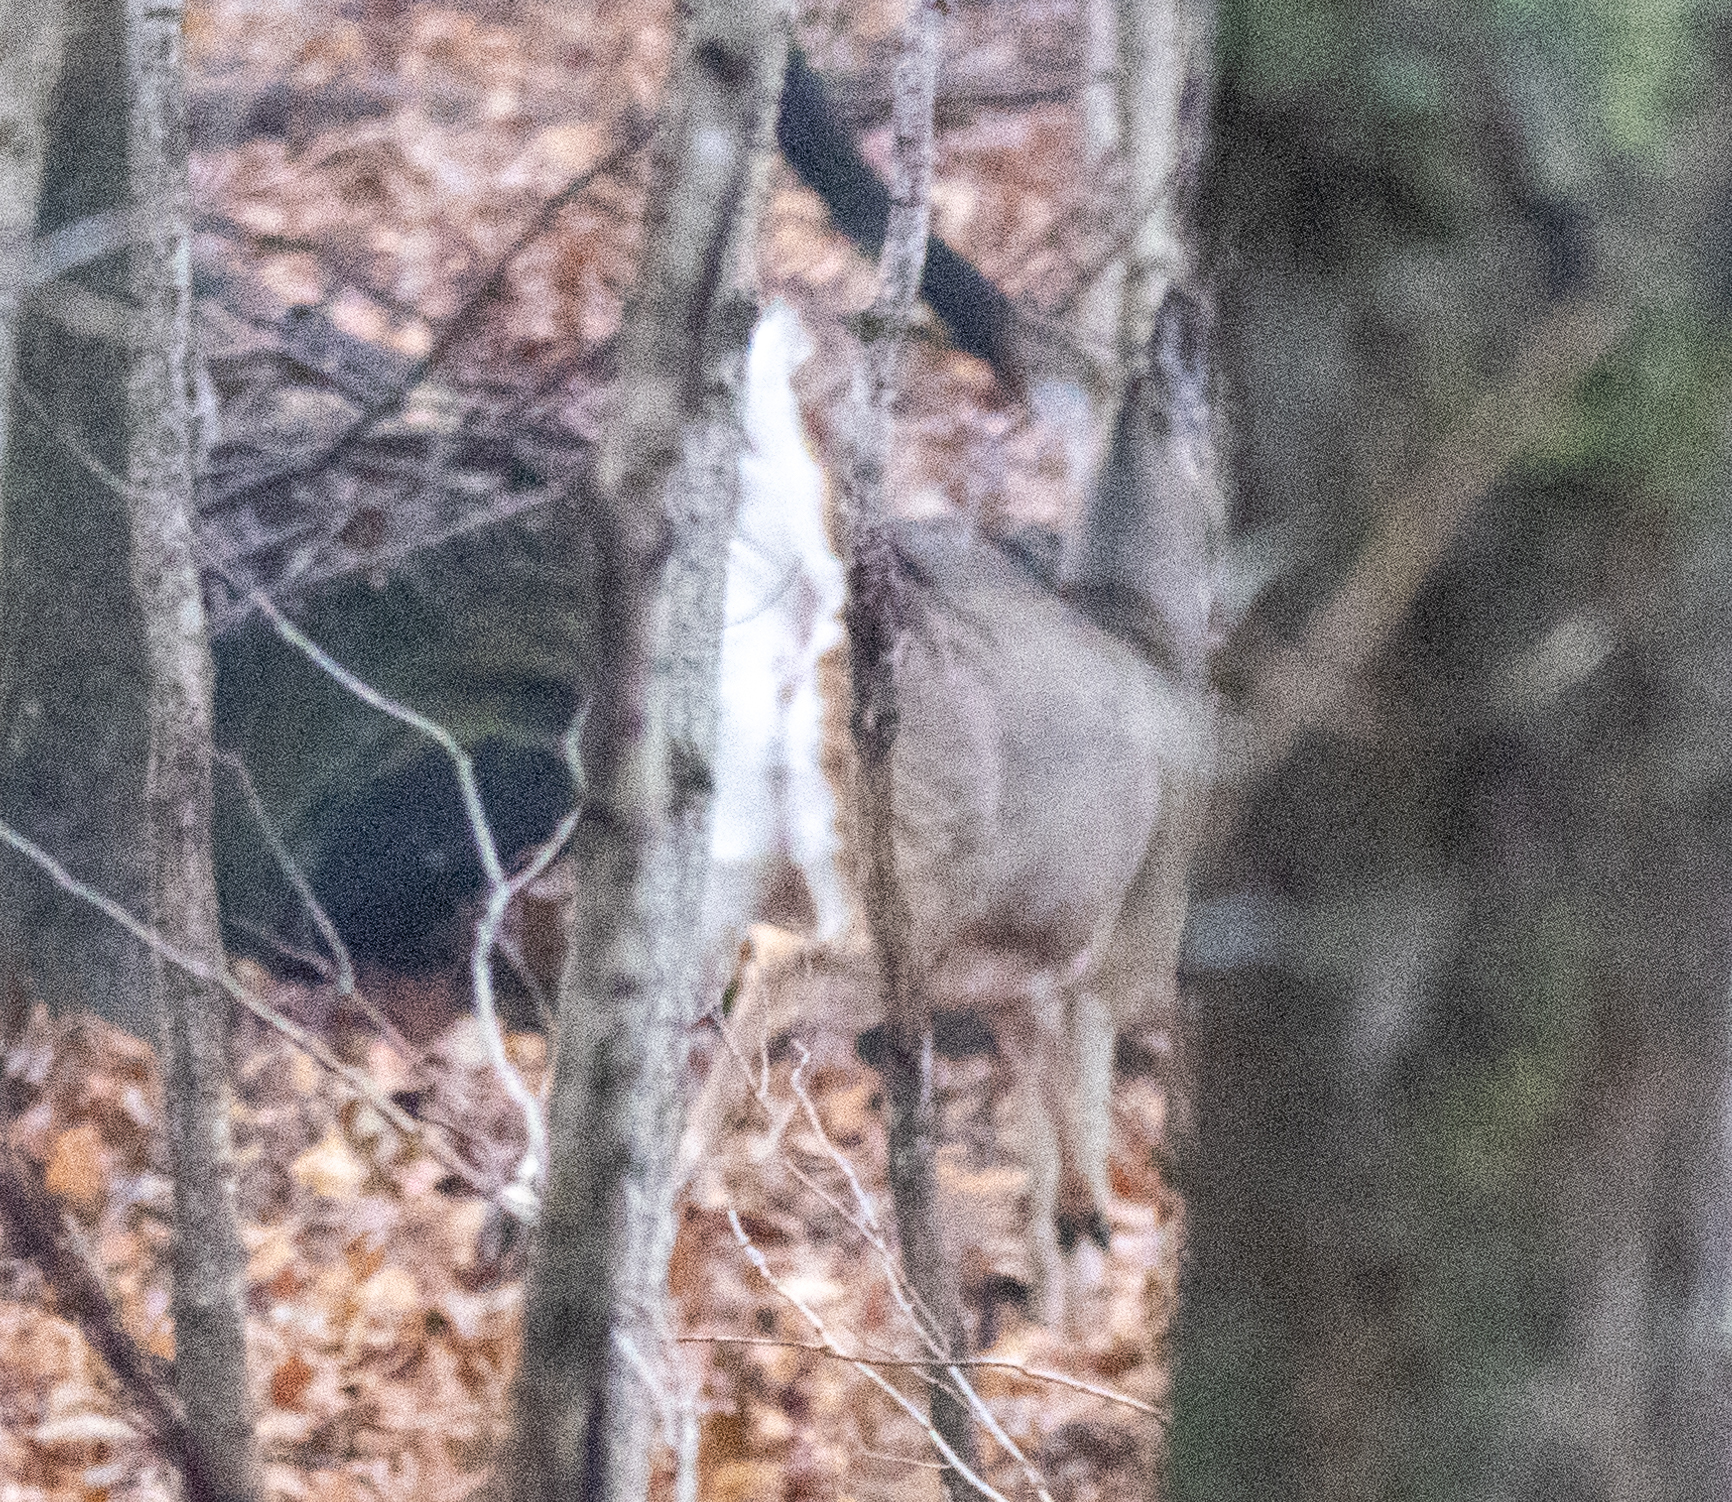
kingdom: Animalia
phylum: Chordata
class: Mammalia
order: Artiodactyla
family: Cervidae
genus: Odocoileus
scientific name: Odocoileus virginianus
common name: White-tailed deer
